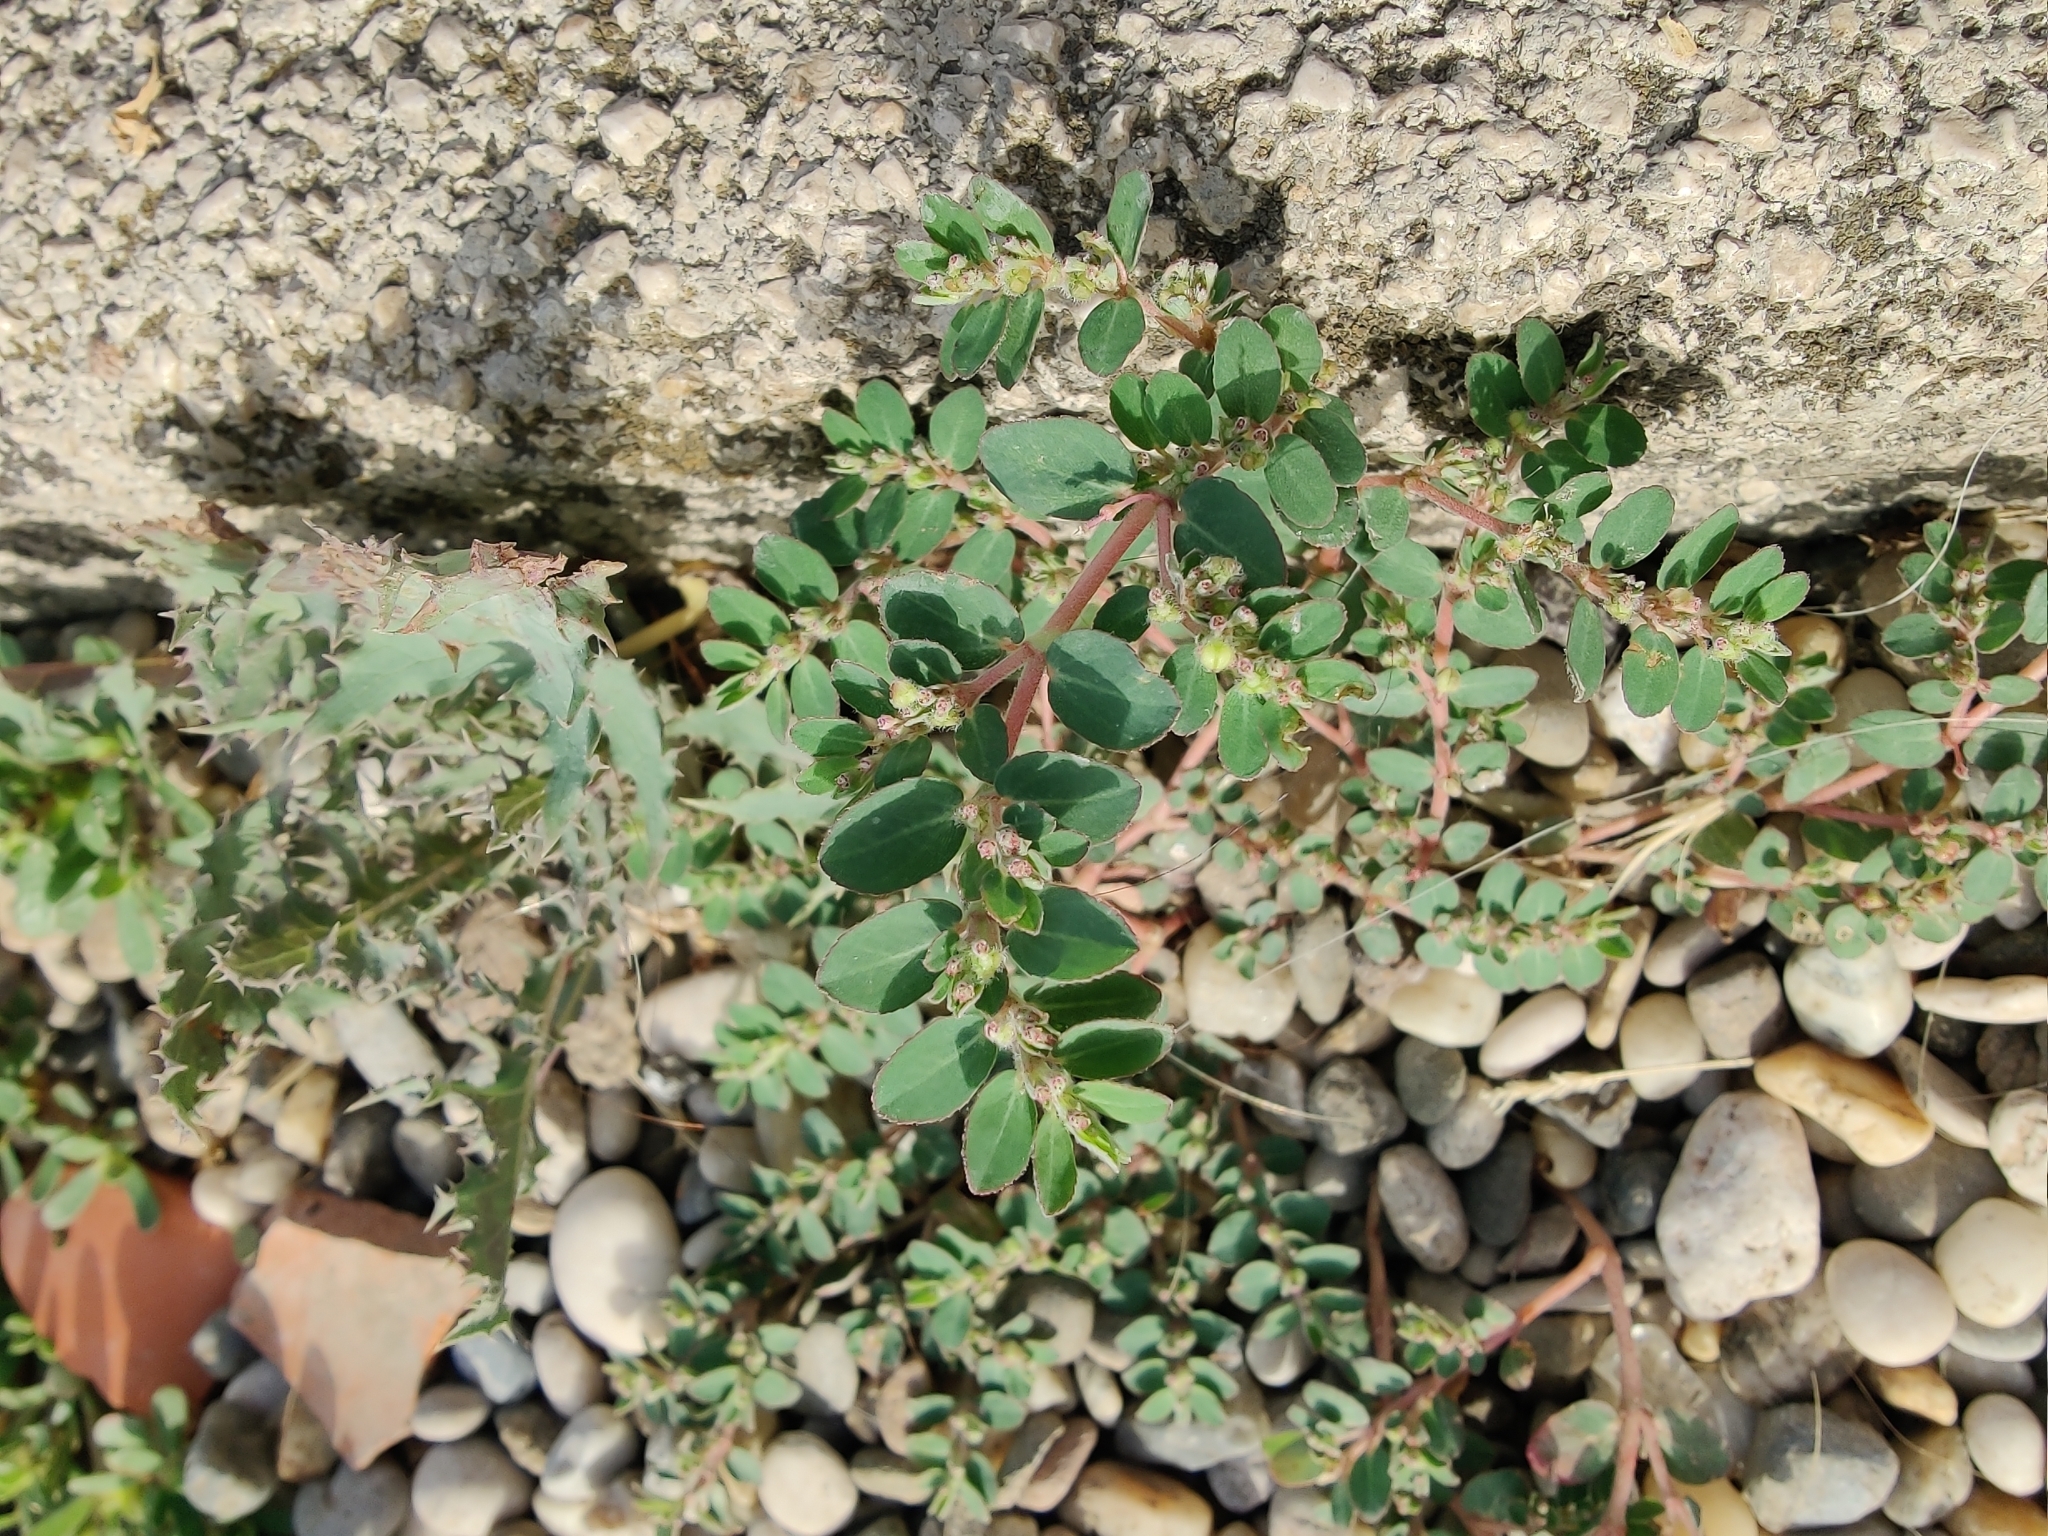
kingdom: Plantae
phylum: Tracheophyta
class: Magnoliopsida
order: Caryophyllales
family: Portulacaceae
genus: Portulaca
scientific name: Portulaca oleracea
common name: Common purslane
